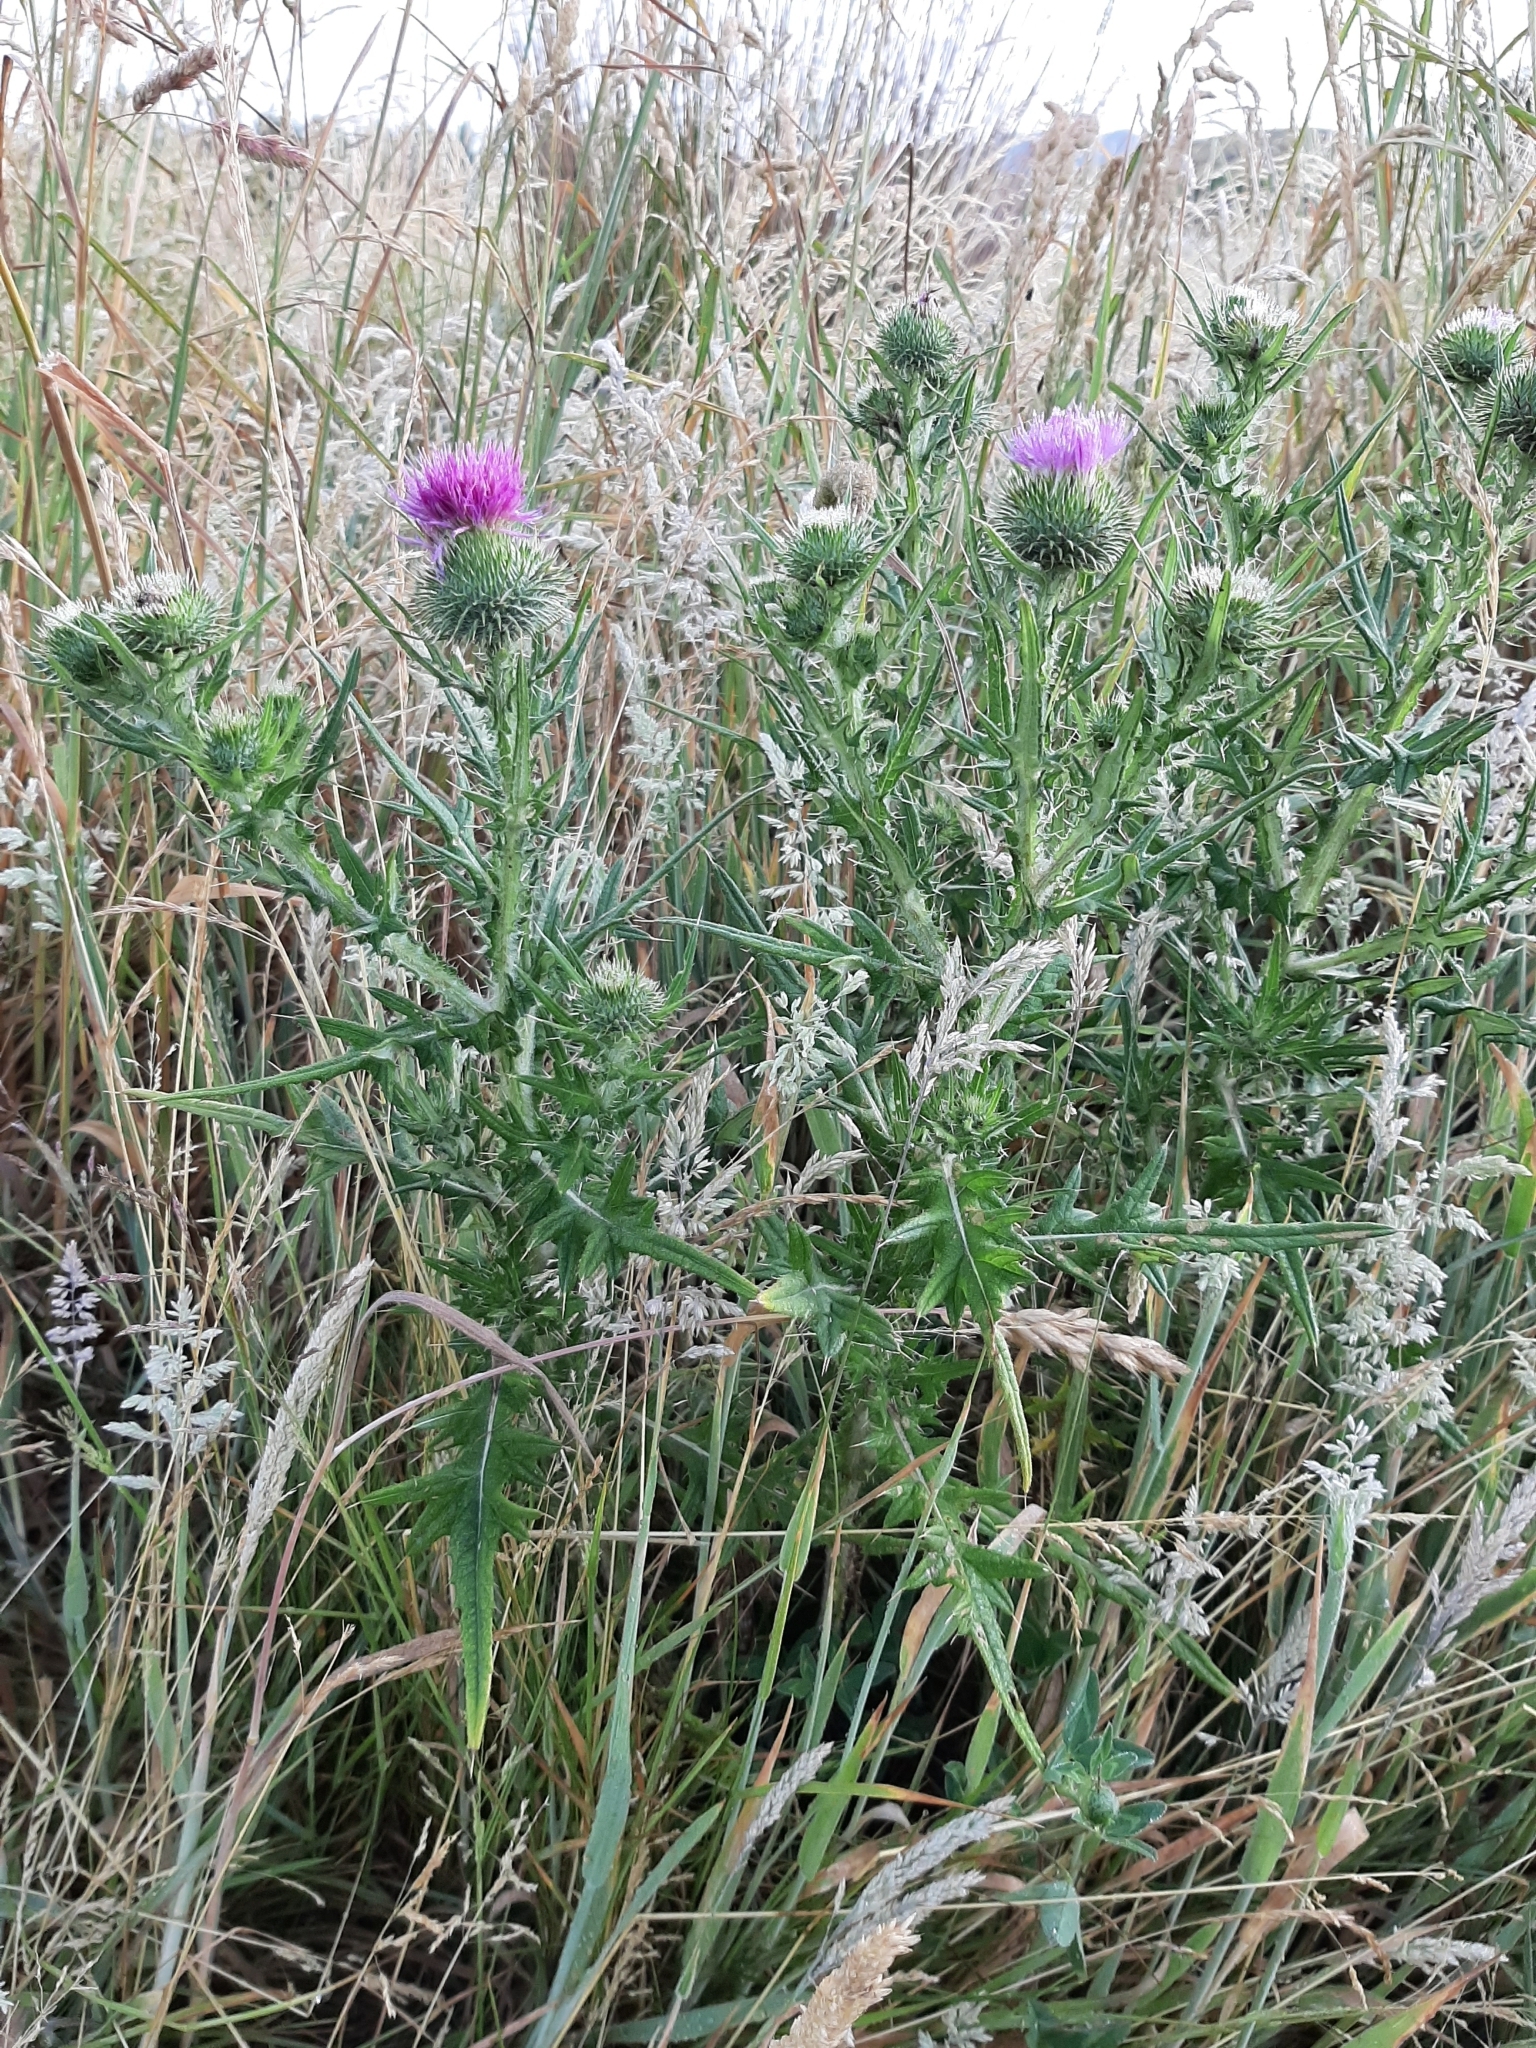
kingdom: Plantae
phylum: Tracheophyta
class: Magnoliopsida
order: Asterales
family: Asteraceae
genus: Cirsium
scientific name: Cirsium vulgare
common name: Bull thistle
